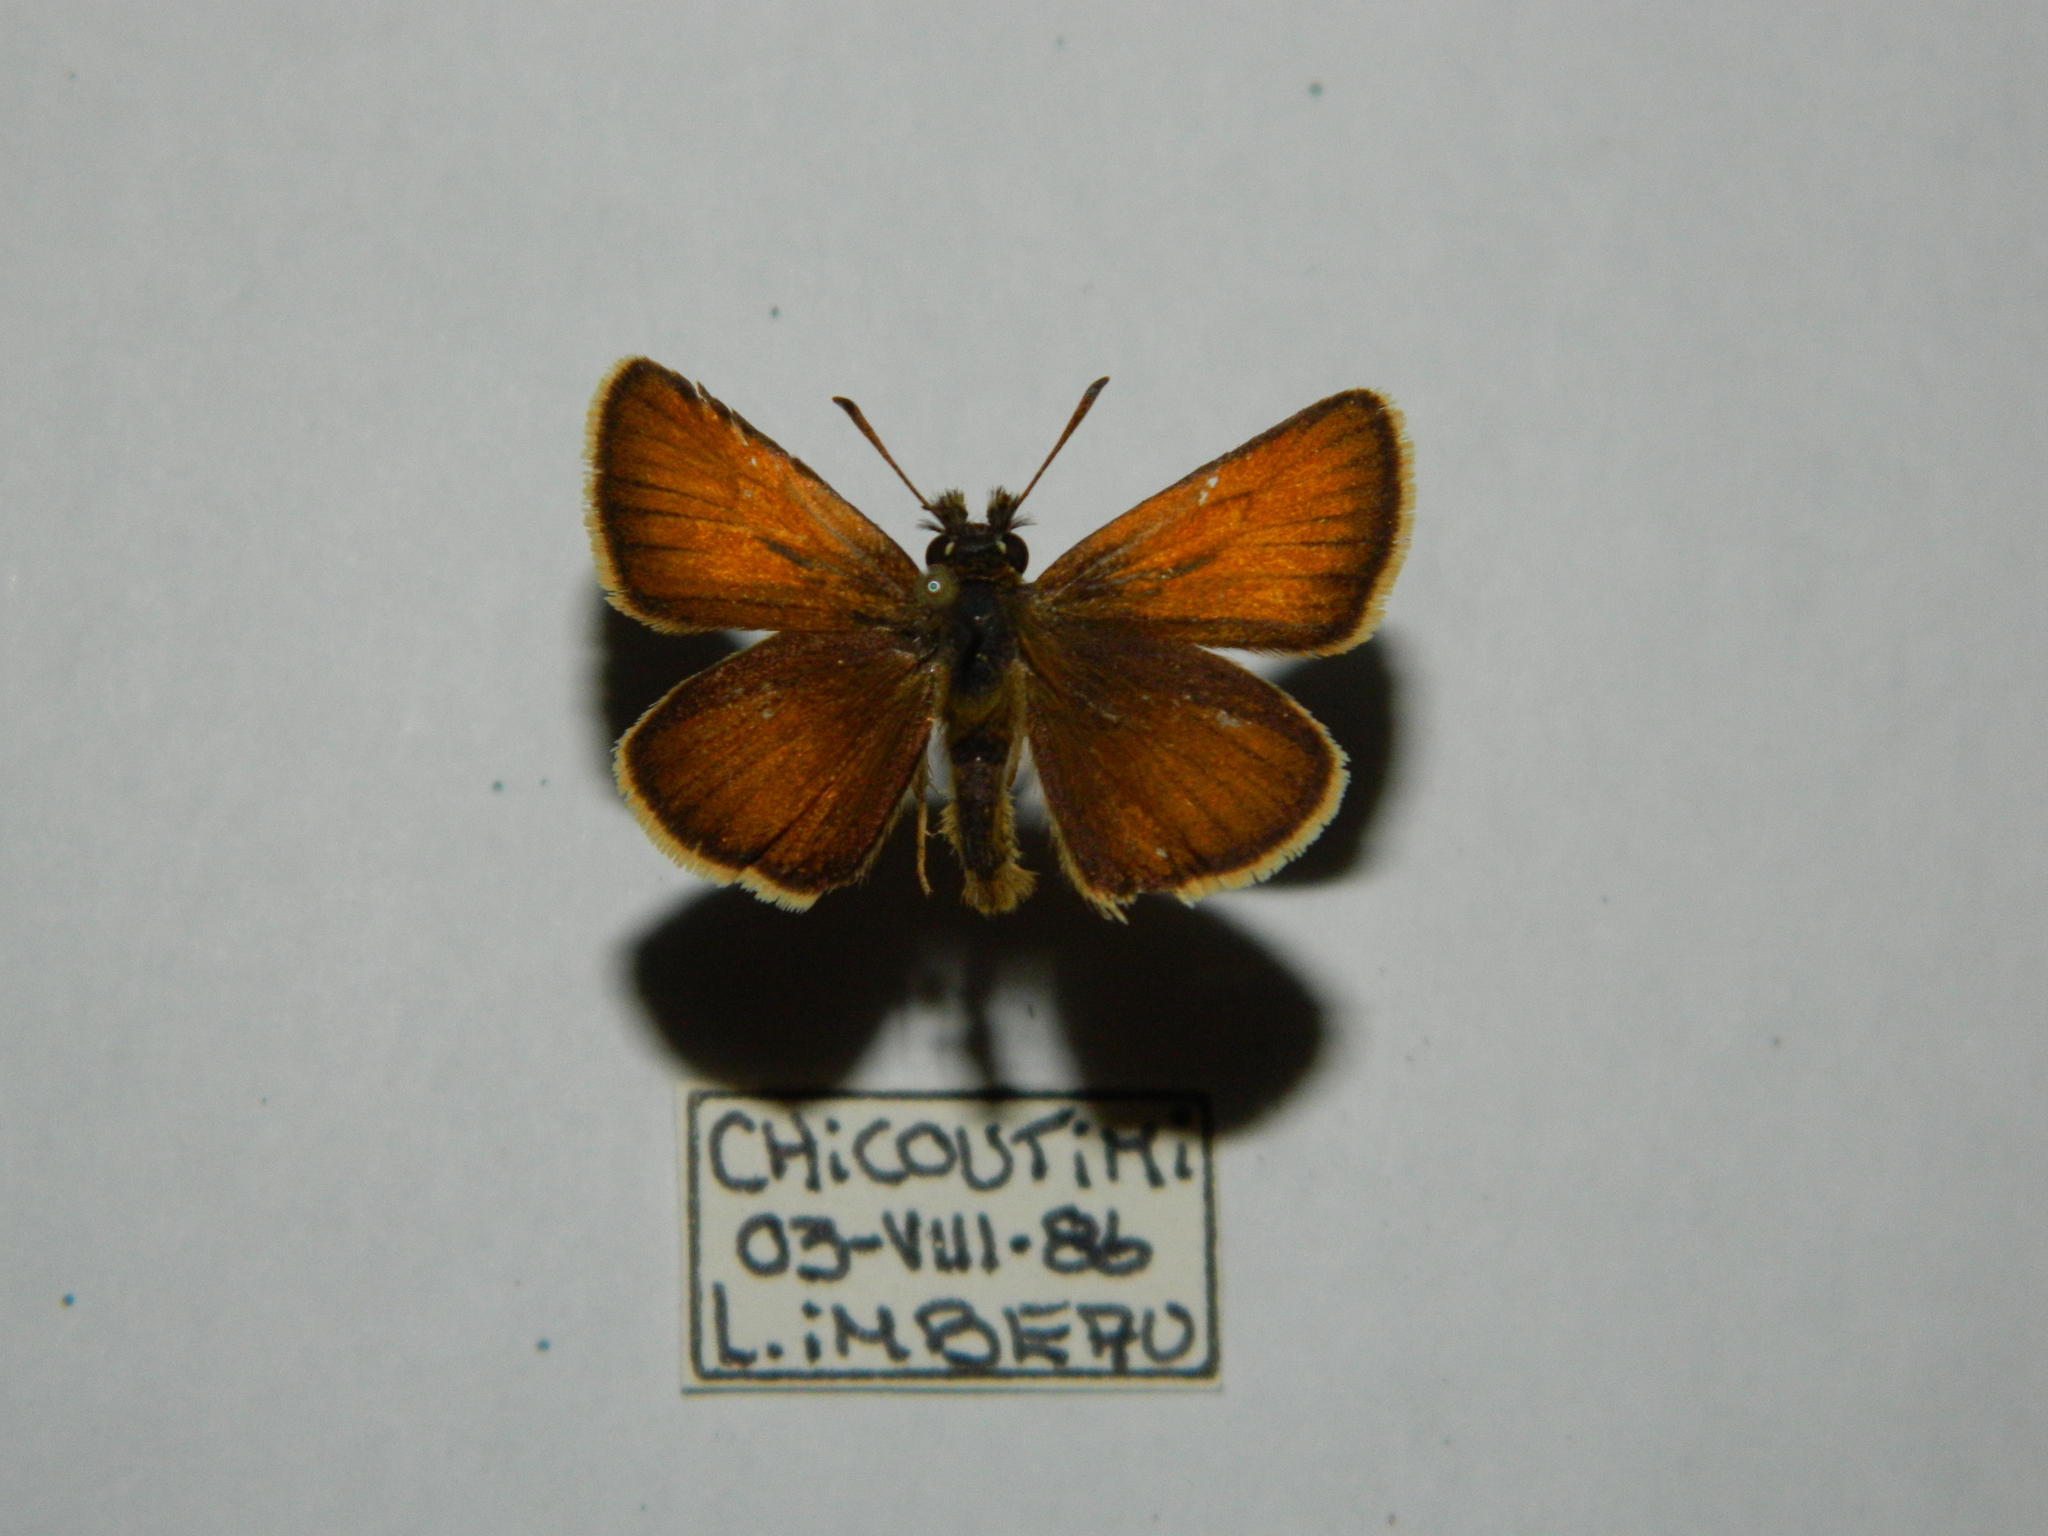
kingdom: Animalia
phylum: Arthropoda
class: Insecta
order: Lepidoptera
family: Hesperiidae
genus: Thymelicus
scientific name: Thymelicus lineola
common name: Essex skipper
